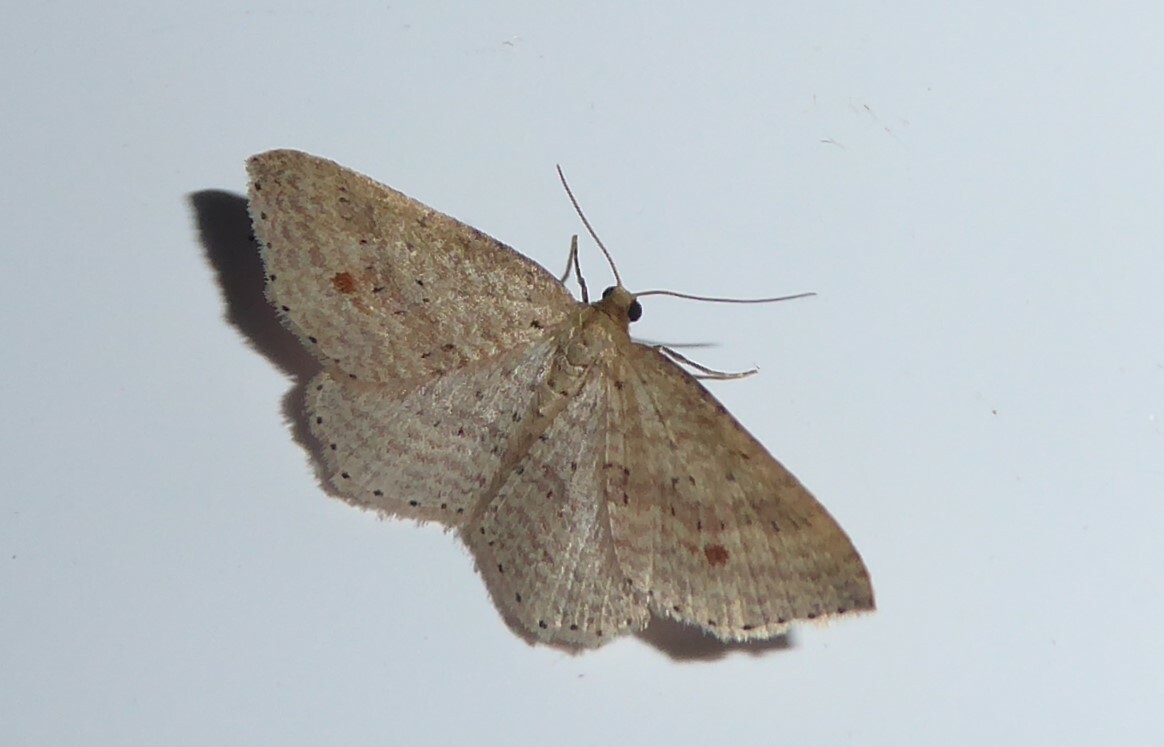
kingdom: Animalia
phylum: Arthropoda
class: Insecta
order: Lepidoptera
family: Geometridae
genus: Epicyme
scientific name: Epicyme rubropunctaria
